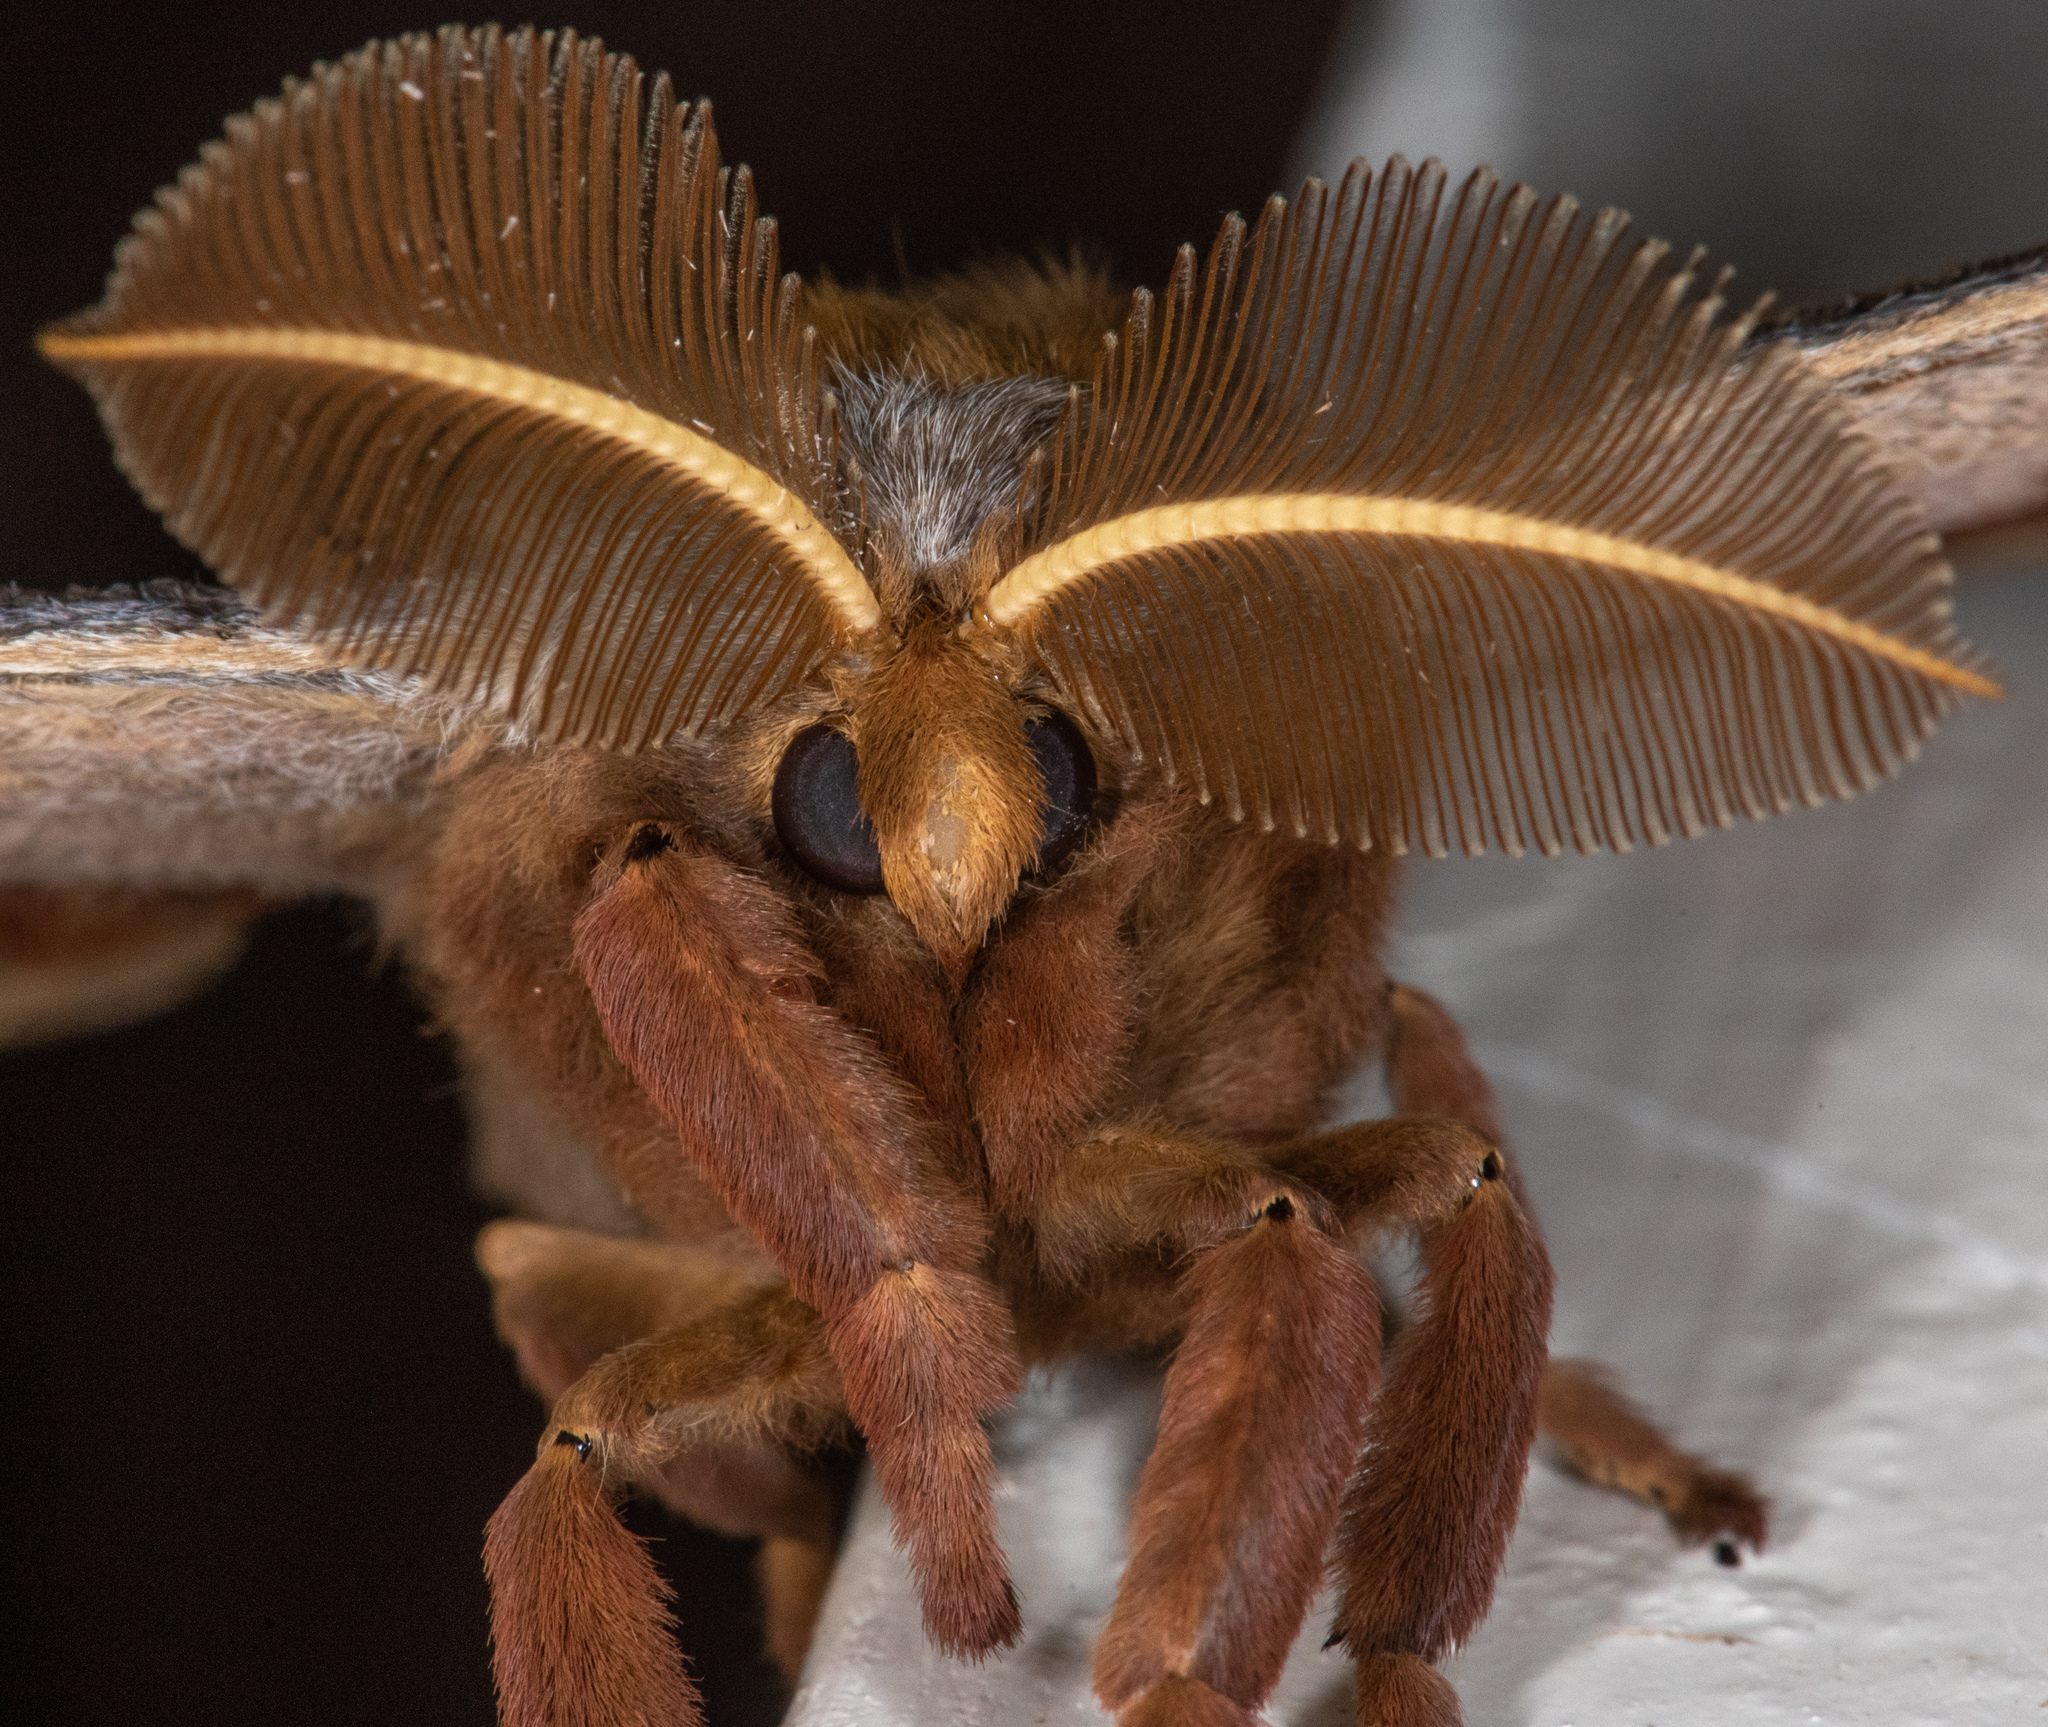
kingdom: Animalia
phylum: Arthropoda
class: Insecta
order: Lepidoptera
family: Saturniidae
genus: Antheraea
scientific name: Antheraea polyphemus
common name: Polyphemus moth
